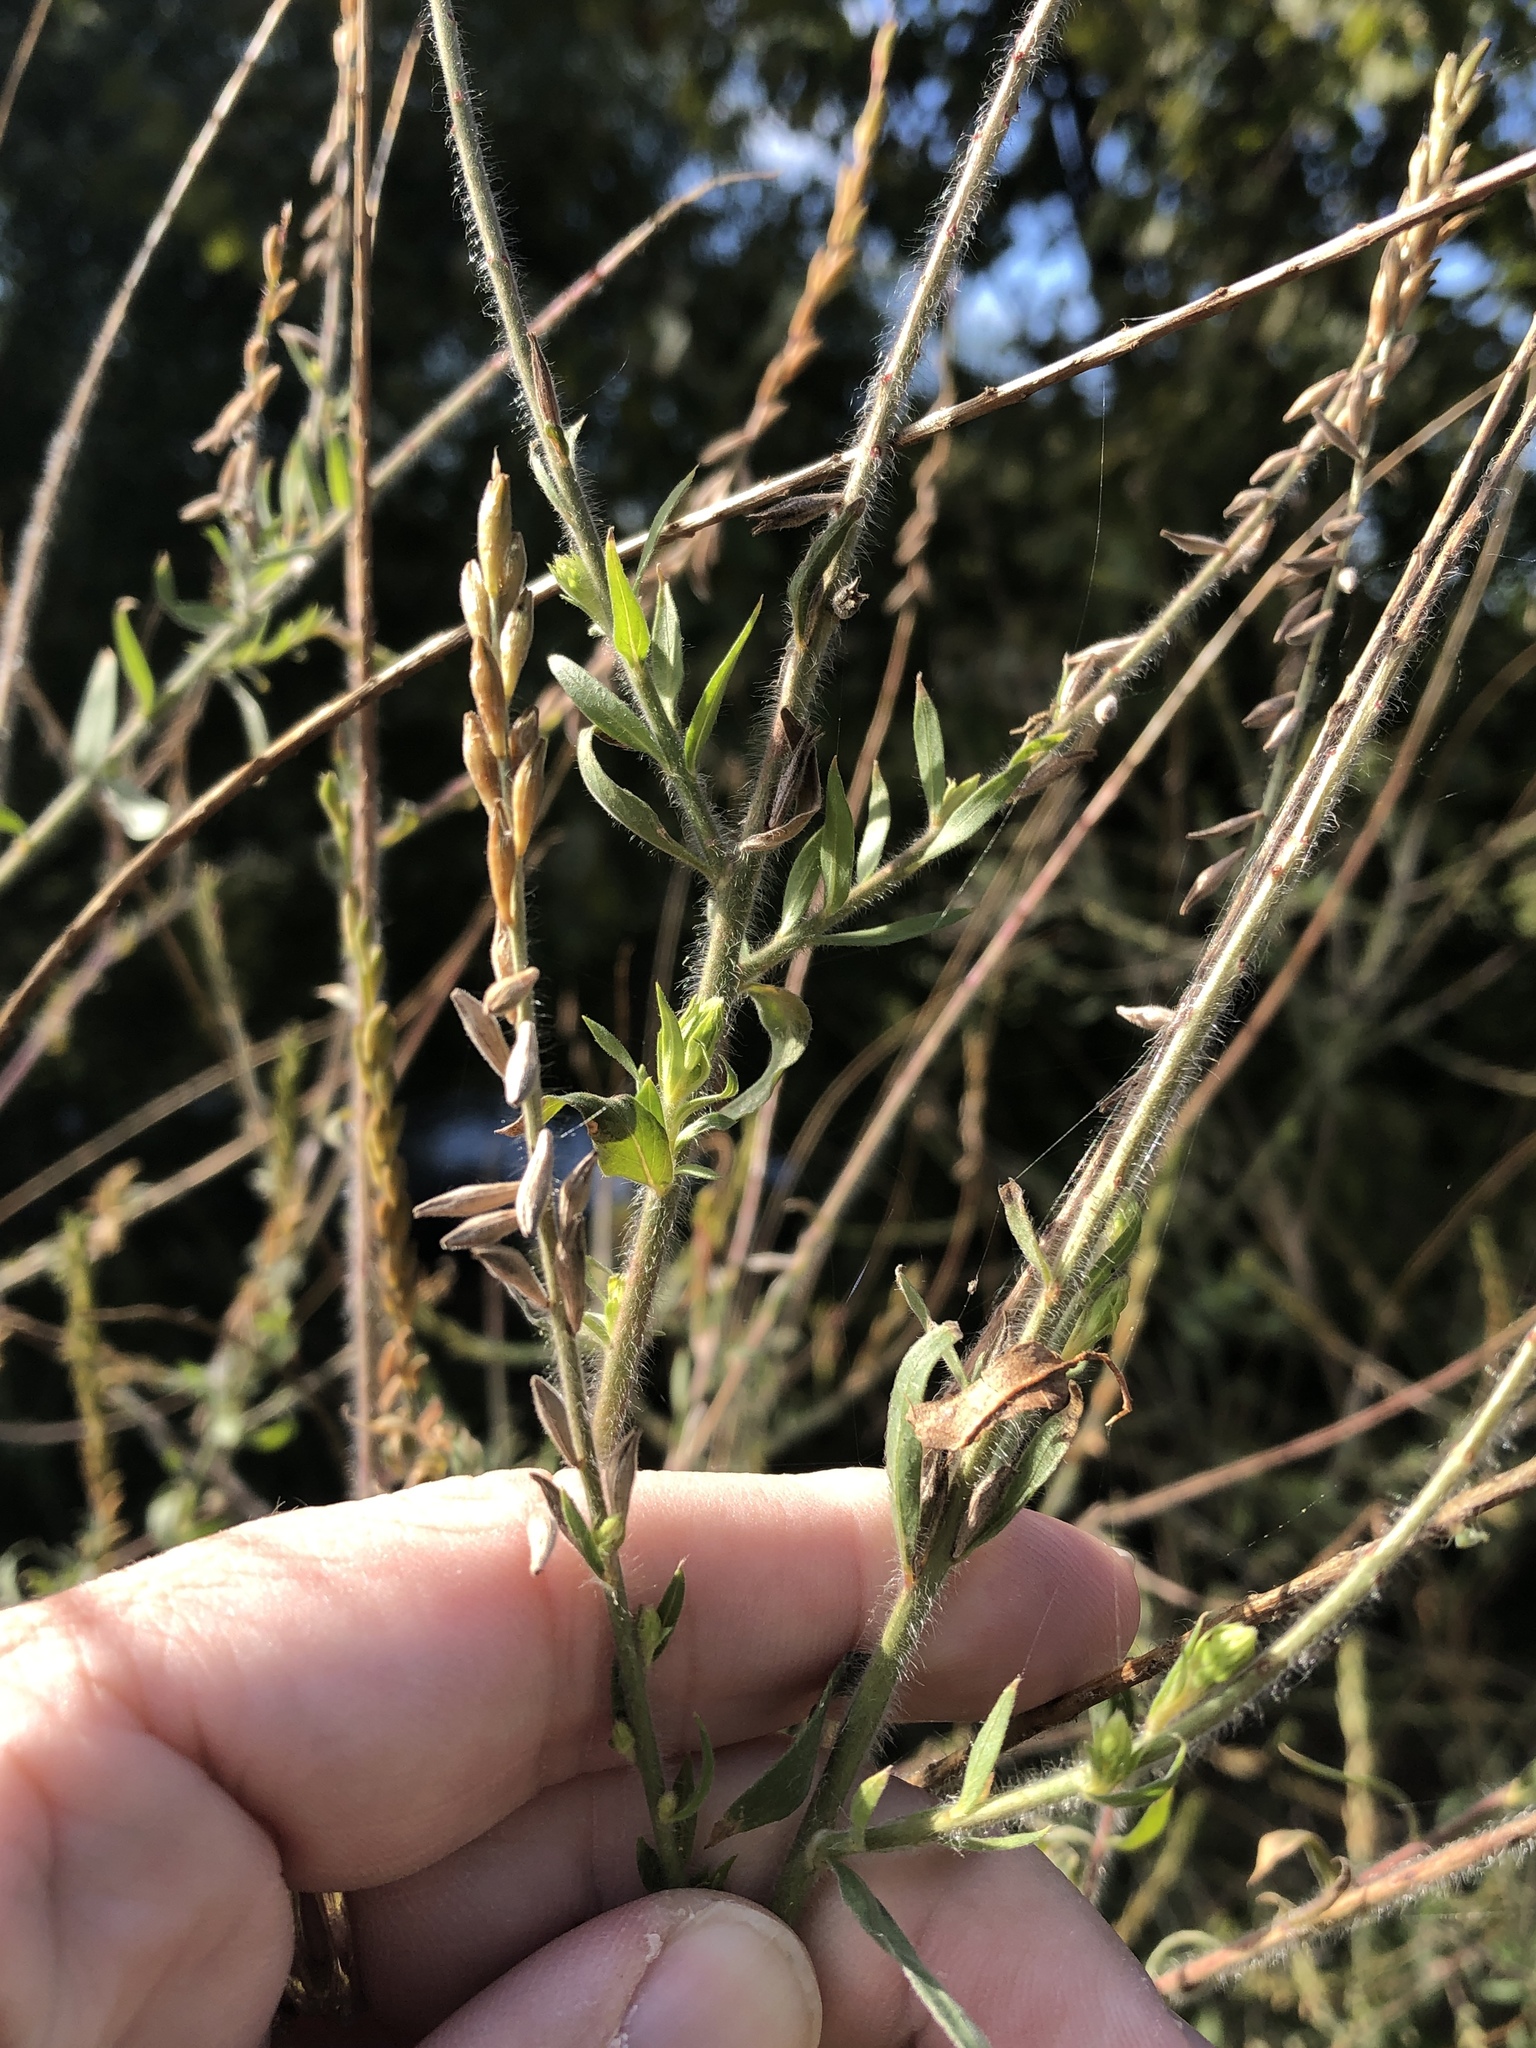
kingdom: Plantae
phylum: Tracheophyta
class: Magnoliopsida
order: Myrtales
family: Onagraceae
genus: Oenothera
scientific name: Oenothera curtiflora
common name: Velvetweed
